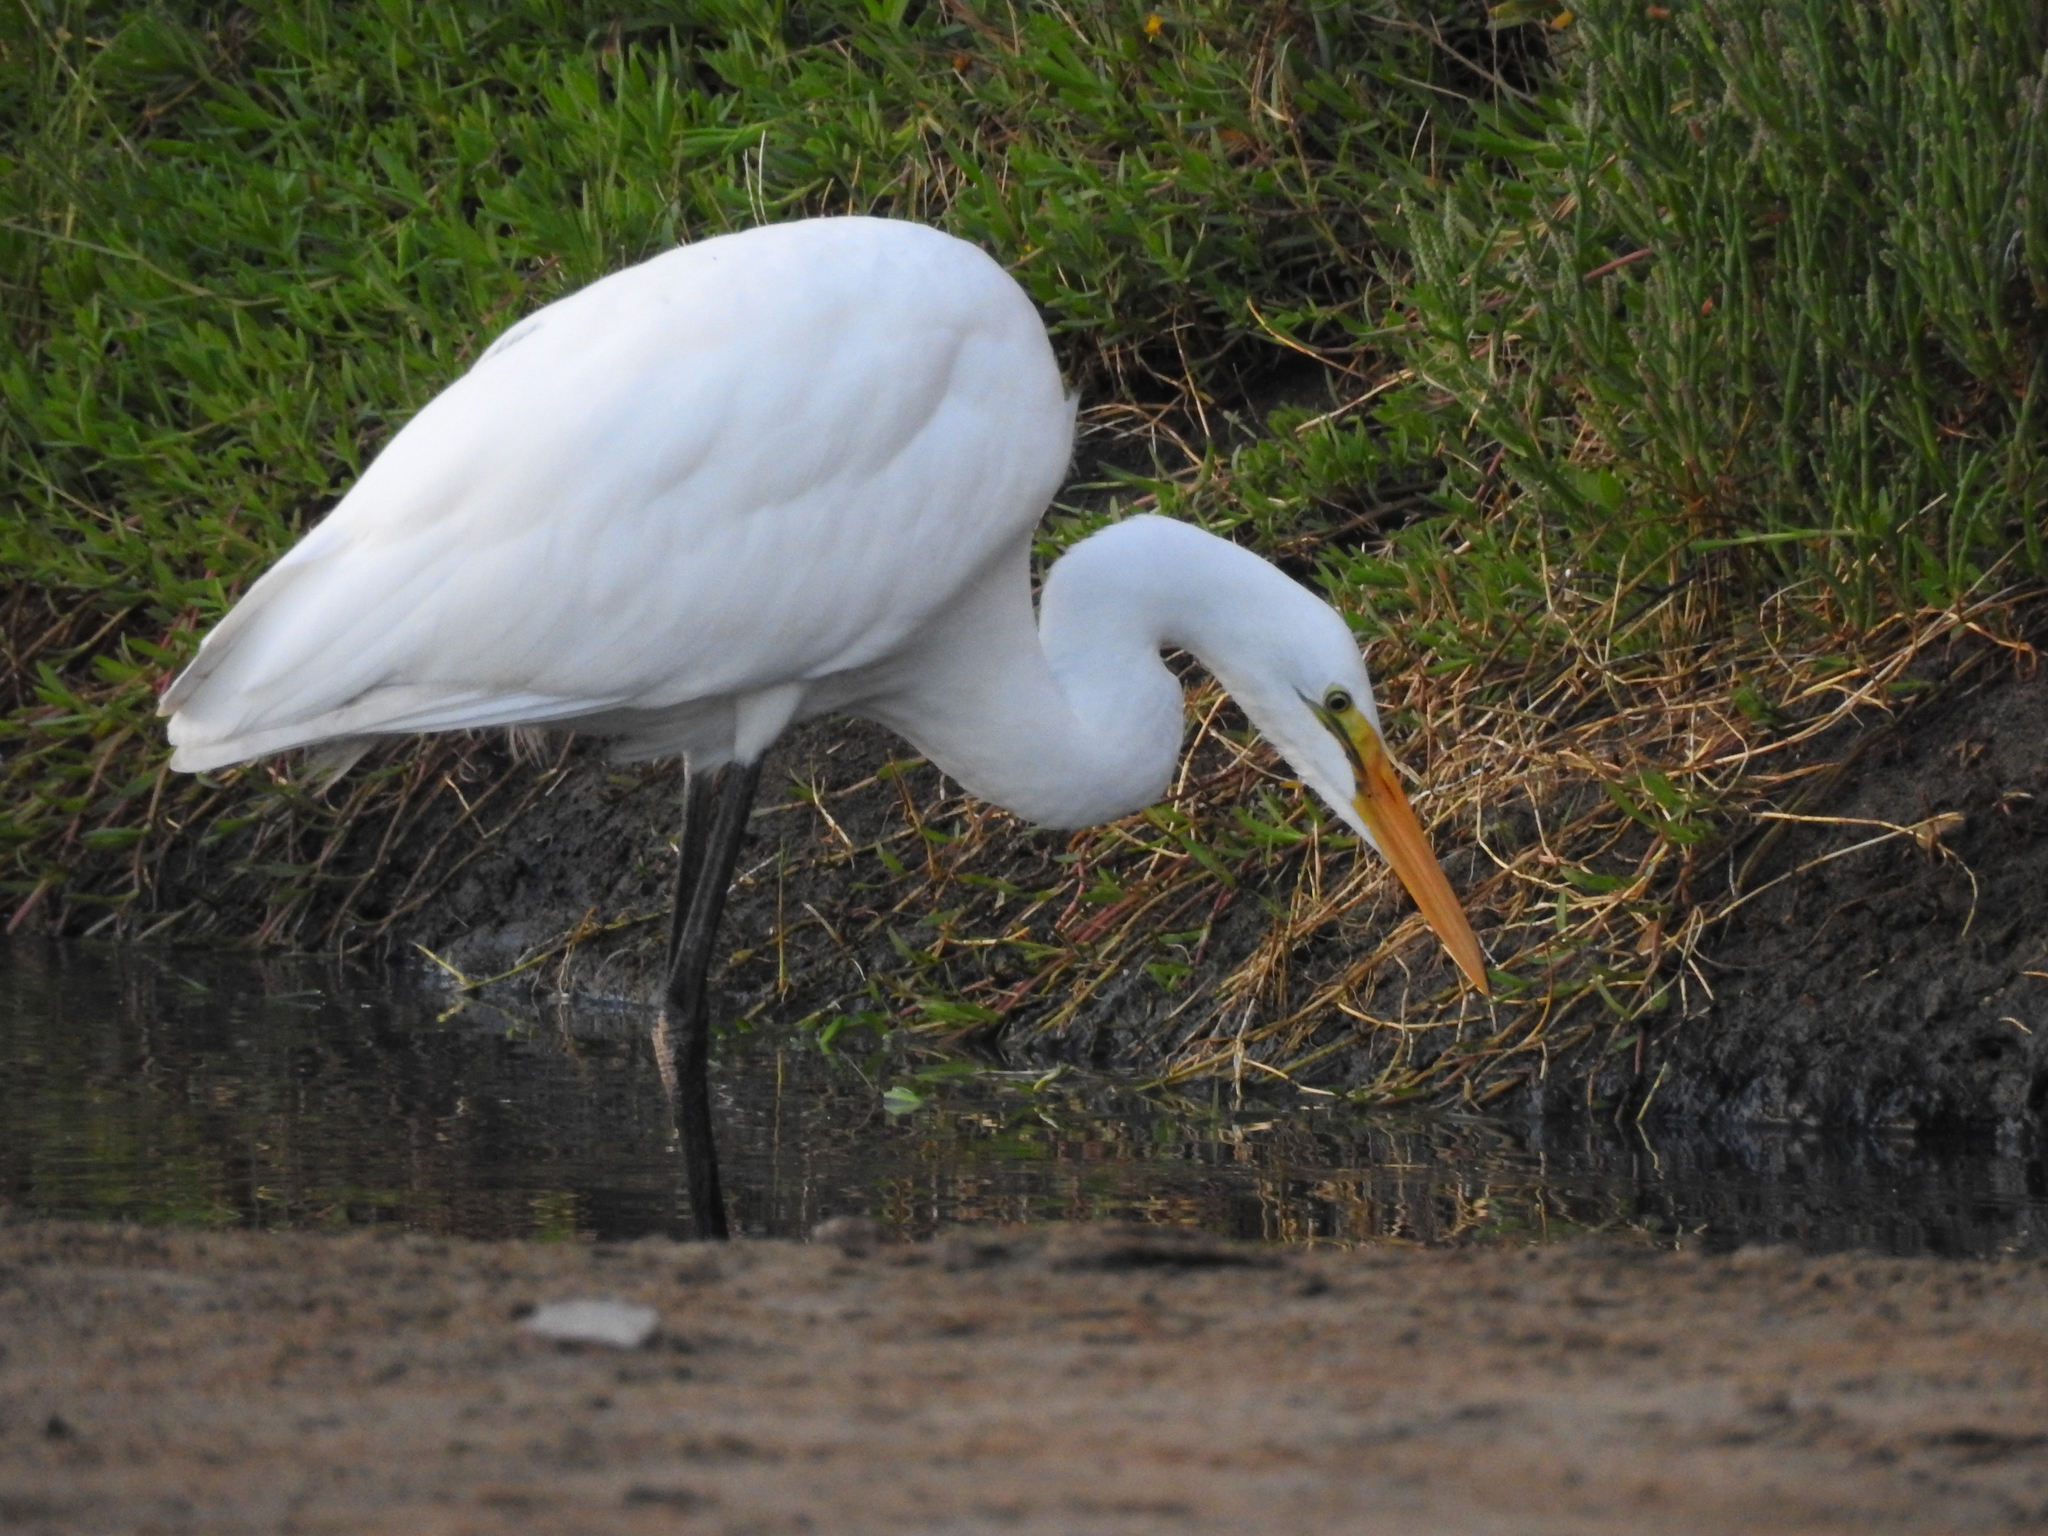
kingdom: Animalia
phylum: Chordata
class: Aves
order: Pelecaniformes
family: Ardeidae
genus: Ardea
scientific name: Ardea alba
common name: Great egret
